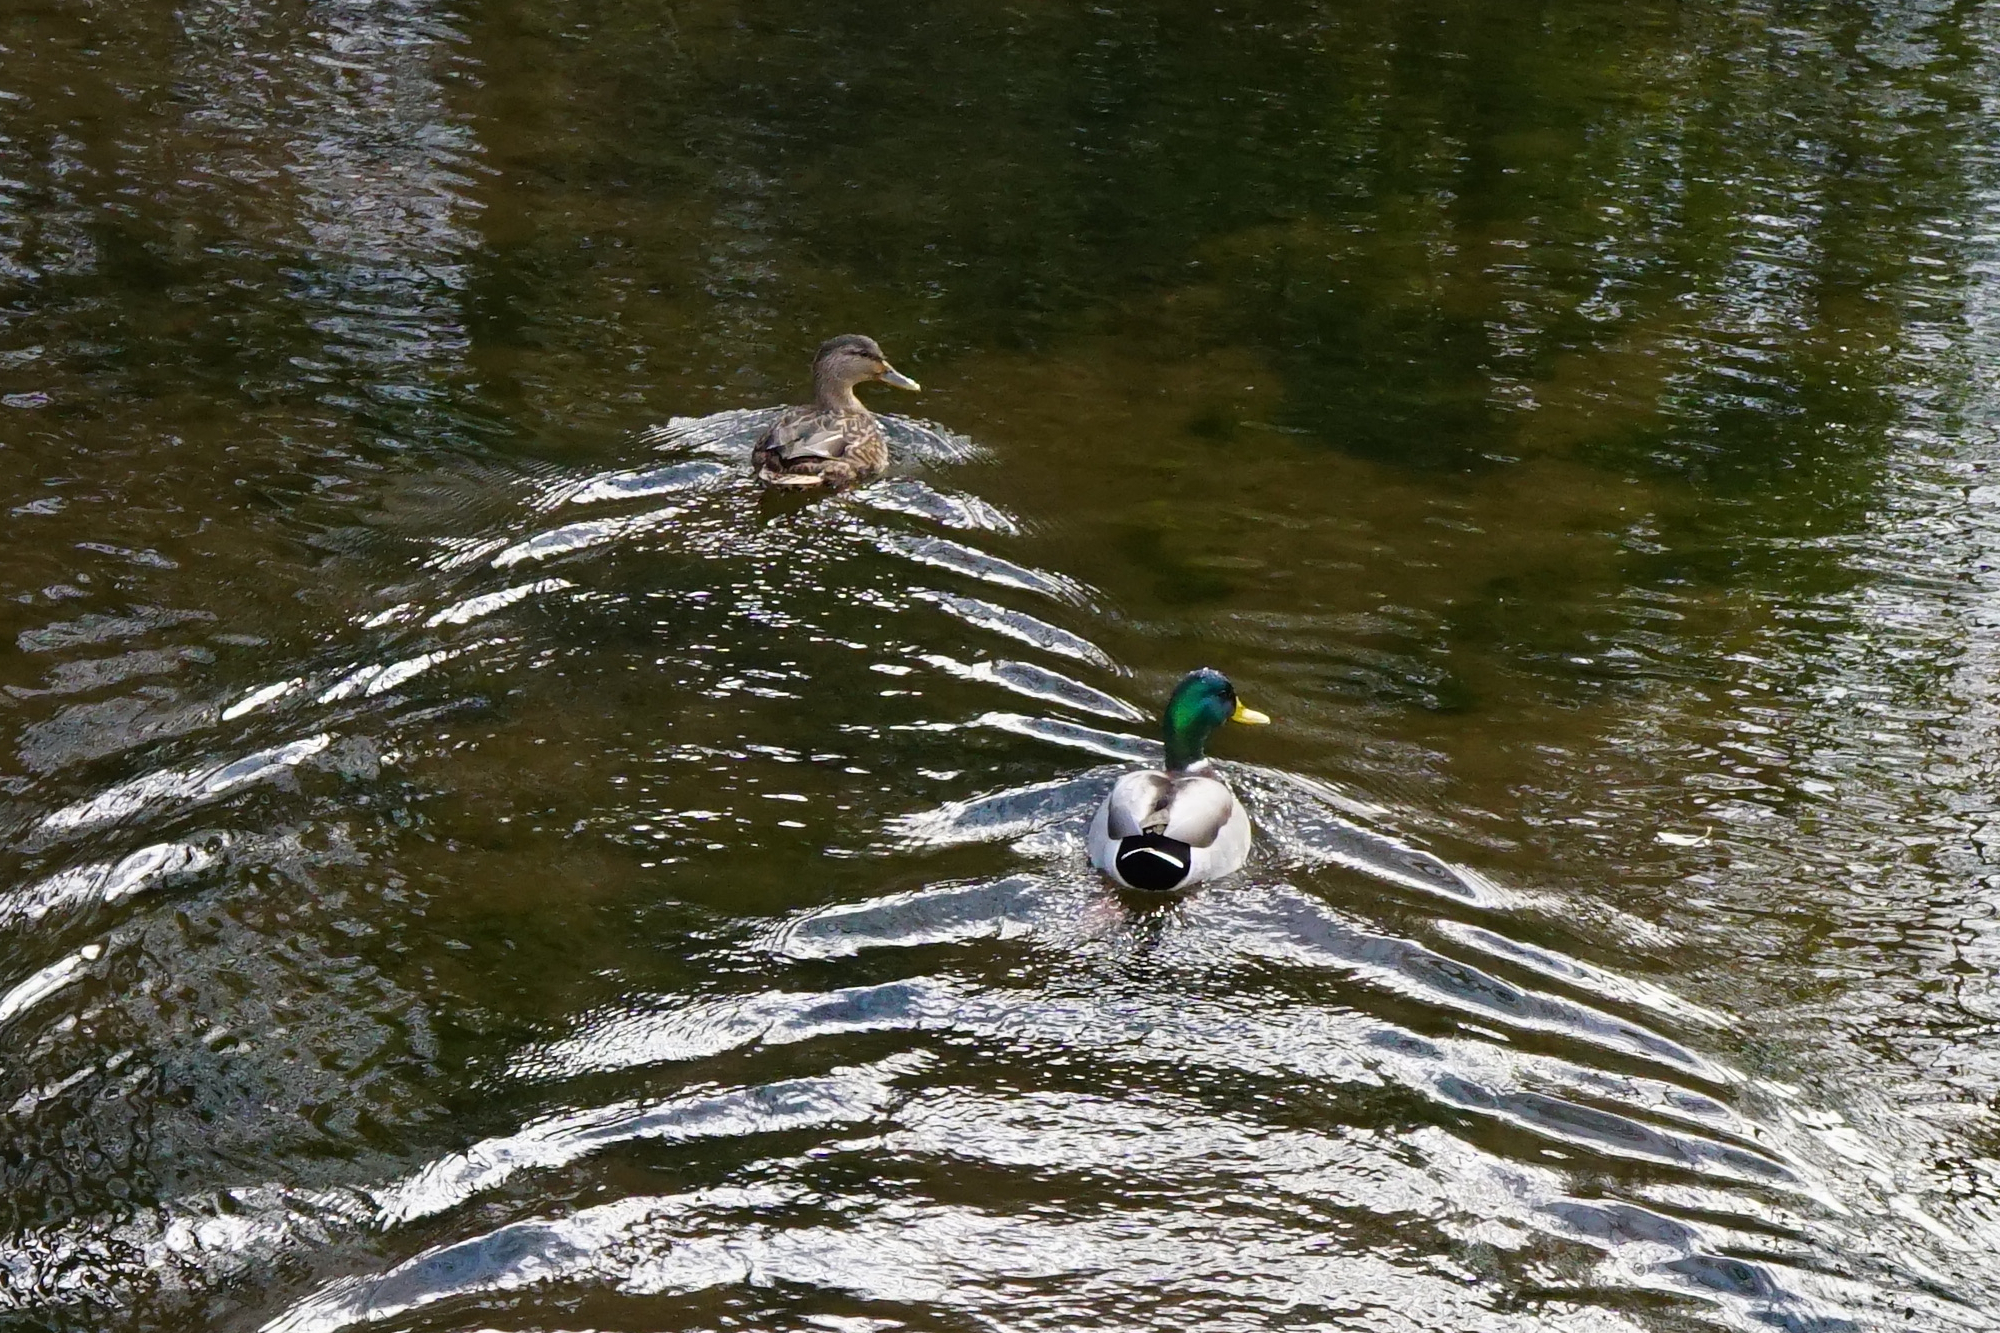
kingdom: Animalia
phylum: Chordata
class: Aves
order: Anseriformes
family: Anatidae
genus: Anas
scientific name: Anas platyrhynchos
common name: Mallard
